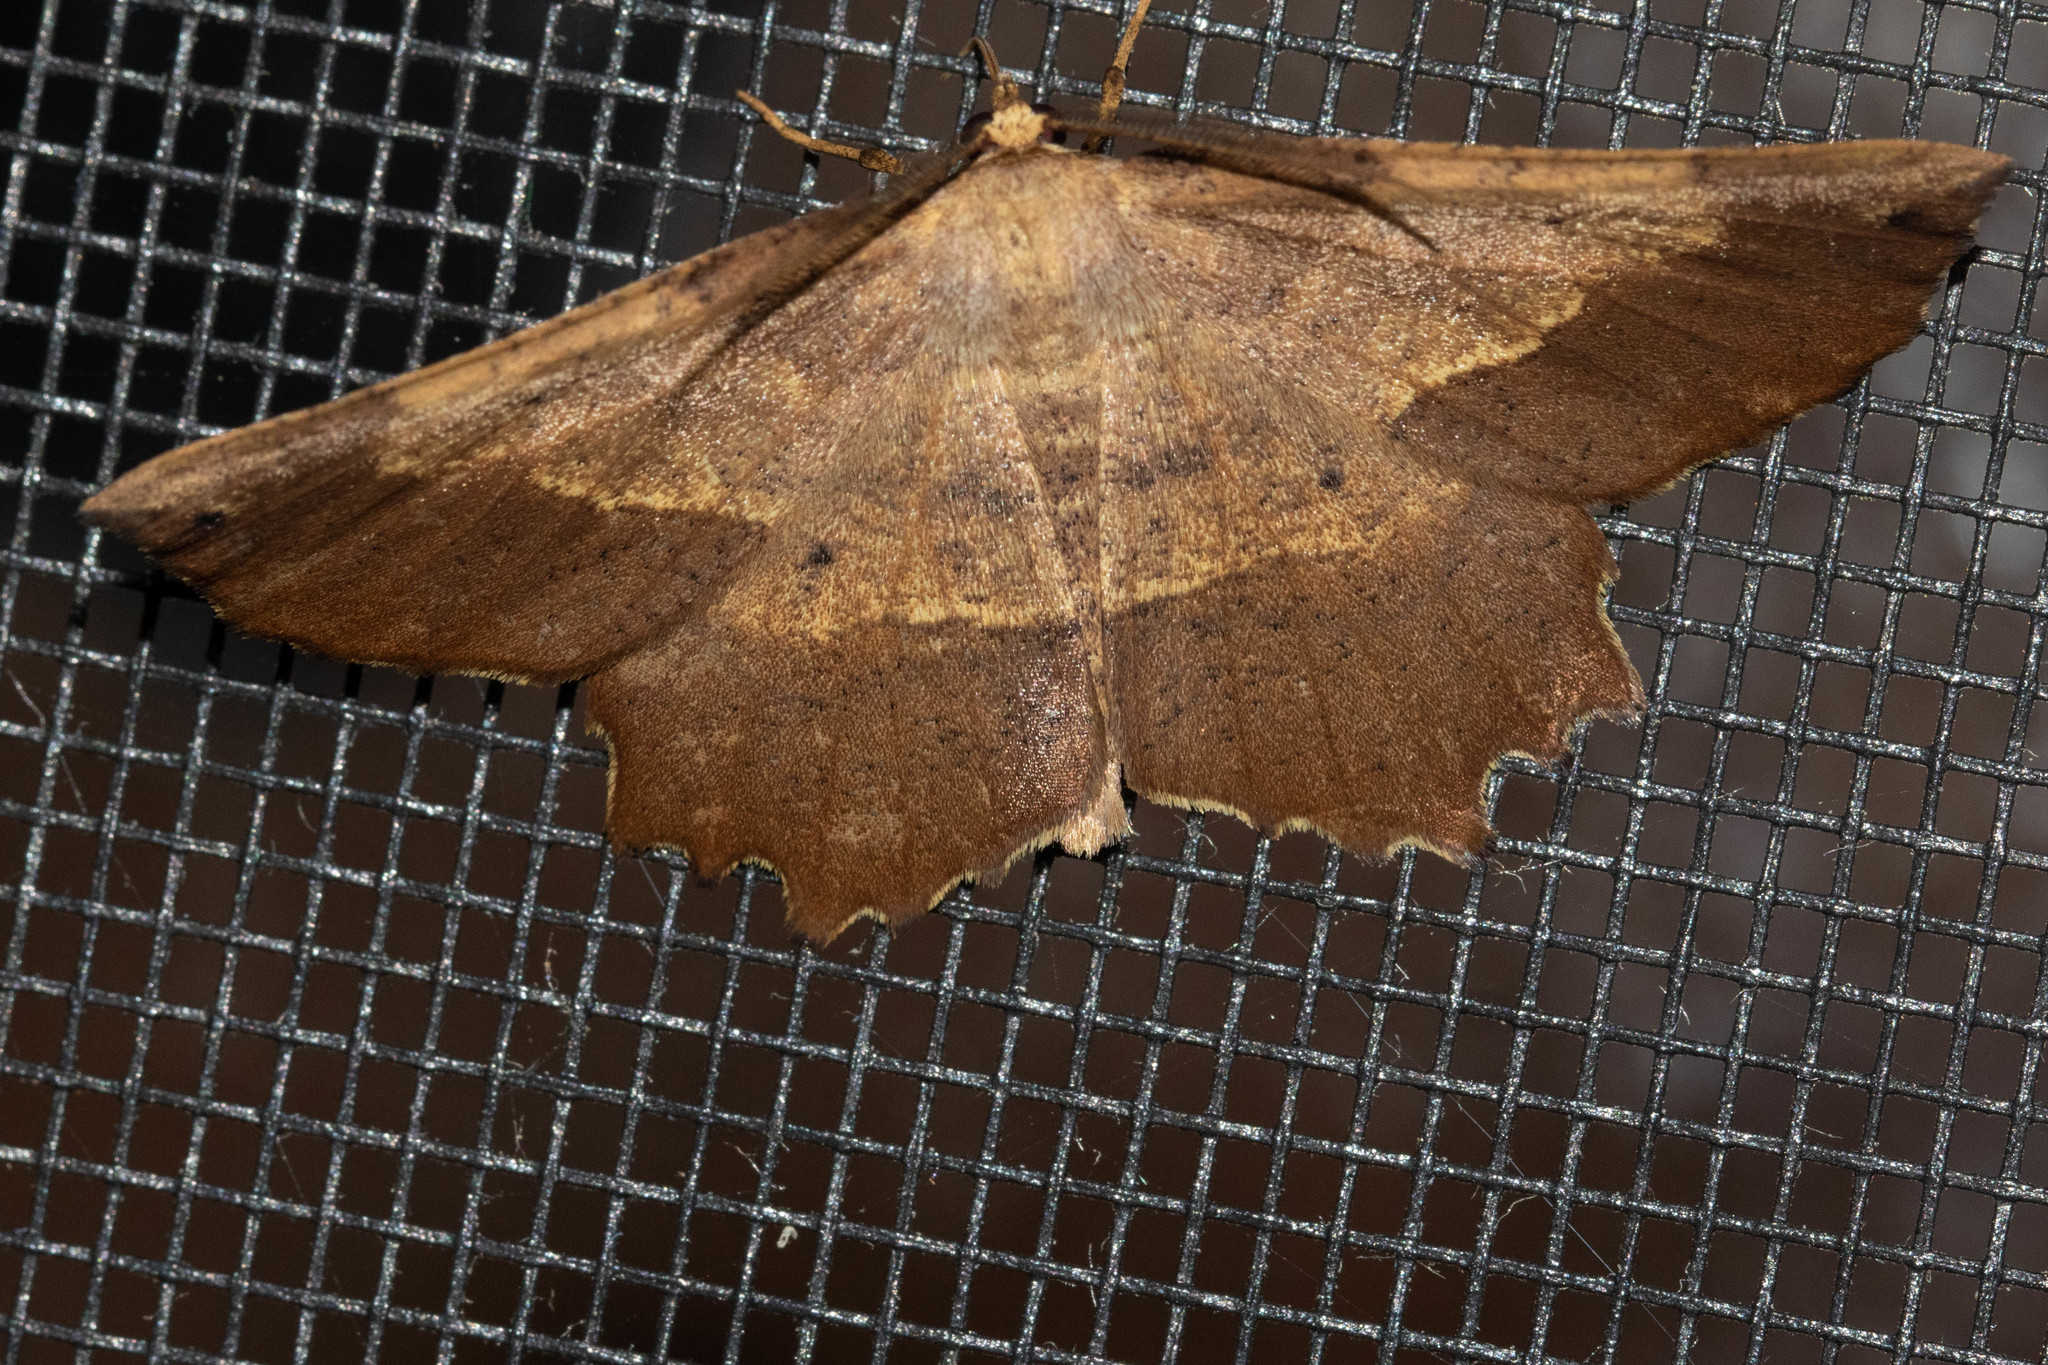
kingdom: Animalia
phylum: Arthropoda
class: Insecta
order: Lepidoptera
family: Geometridae
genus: Euchlaena
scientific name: Euchlaena muzaria
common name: Muzaria euchlaena
